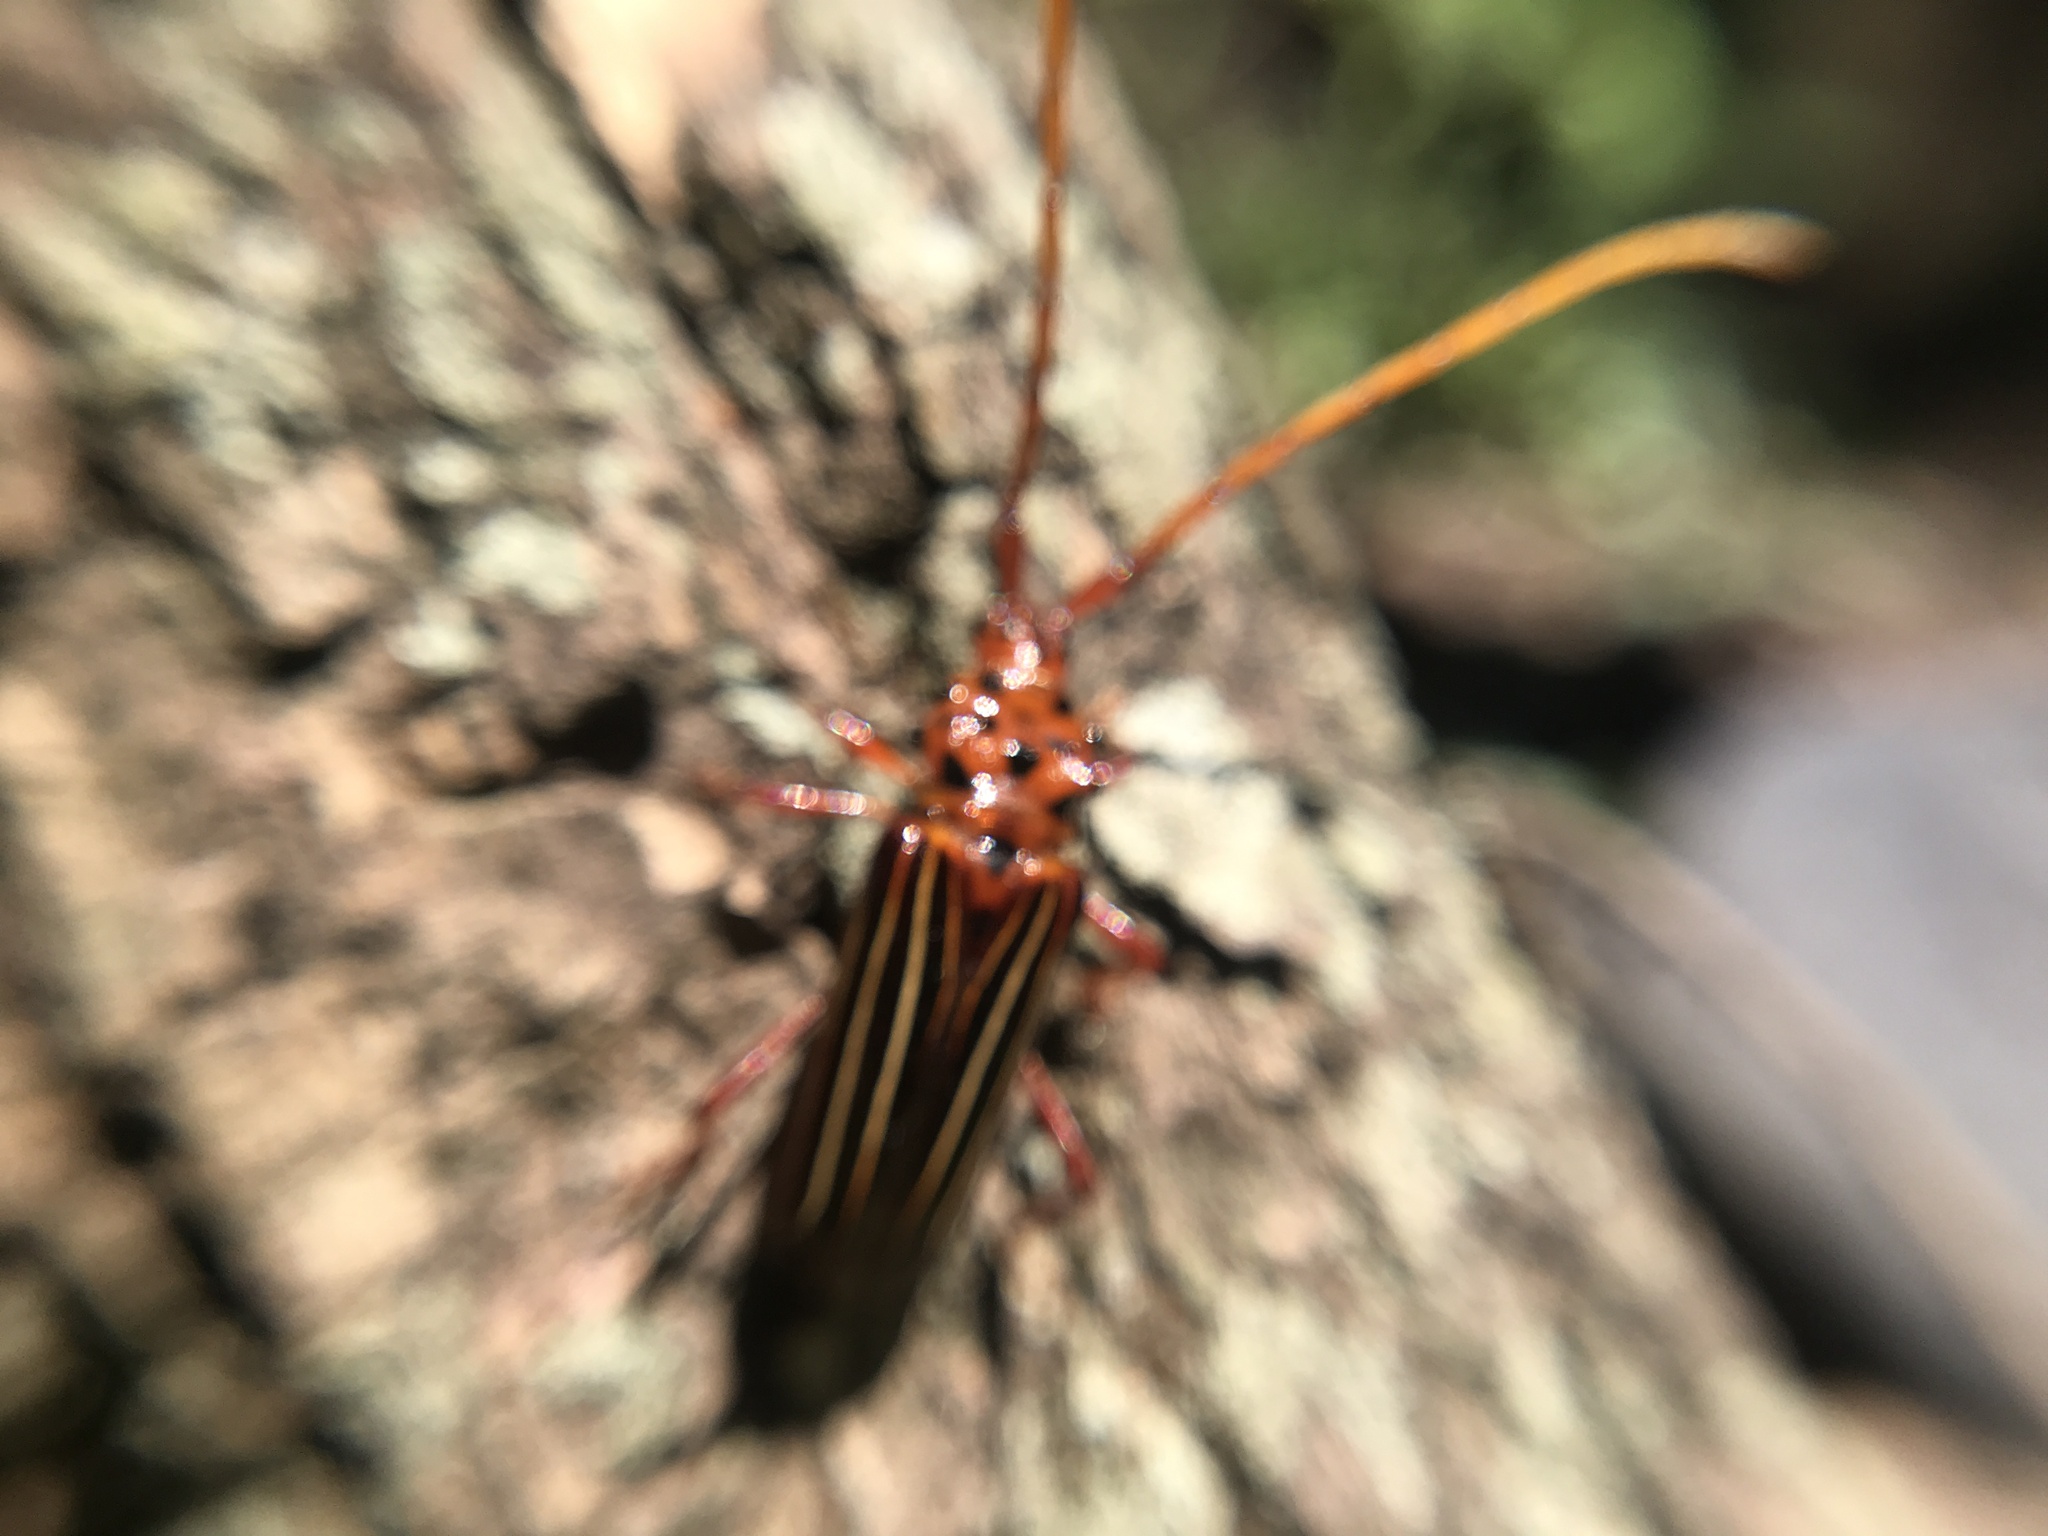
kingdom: Animalia
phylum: Arthropoda
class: Insecta
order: Coleoptera
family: Cerambycidae
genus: Chydarteres
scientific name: Chydarteres striatus
